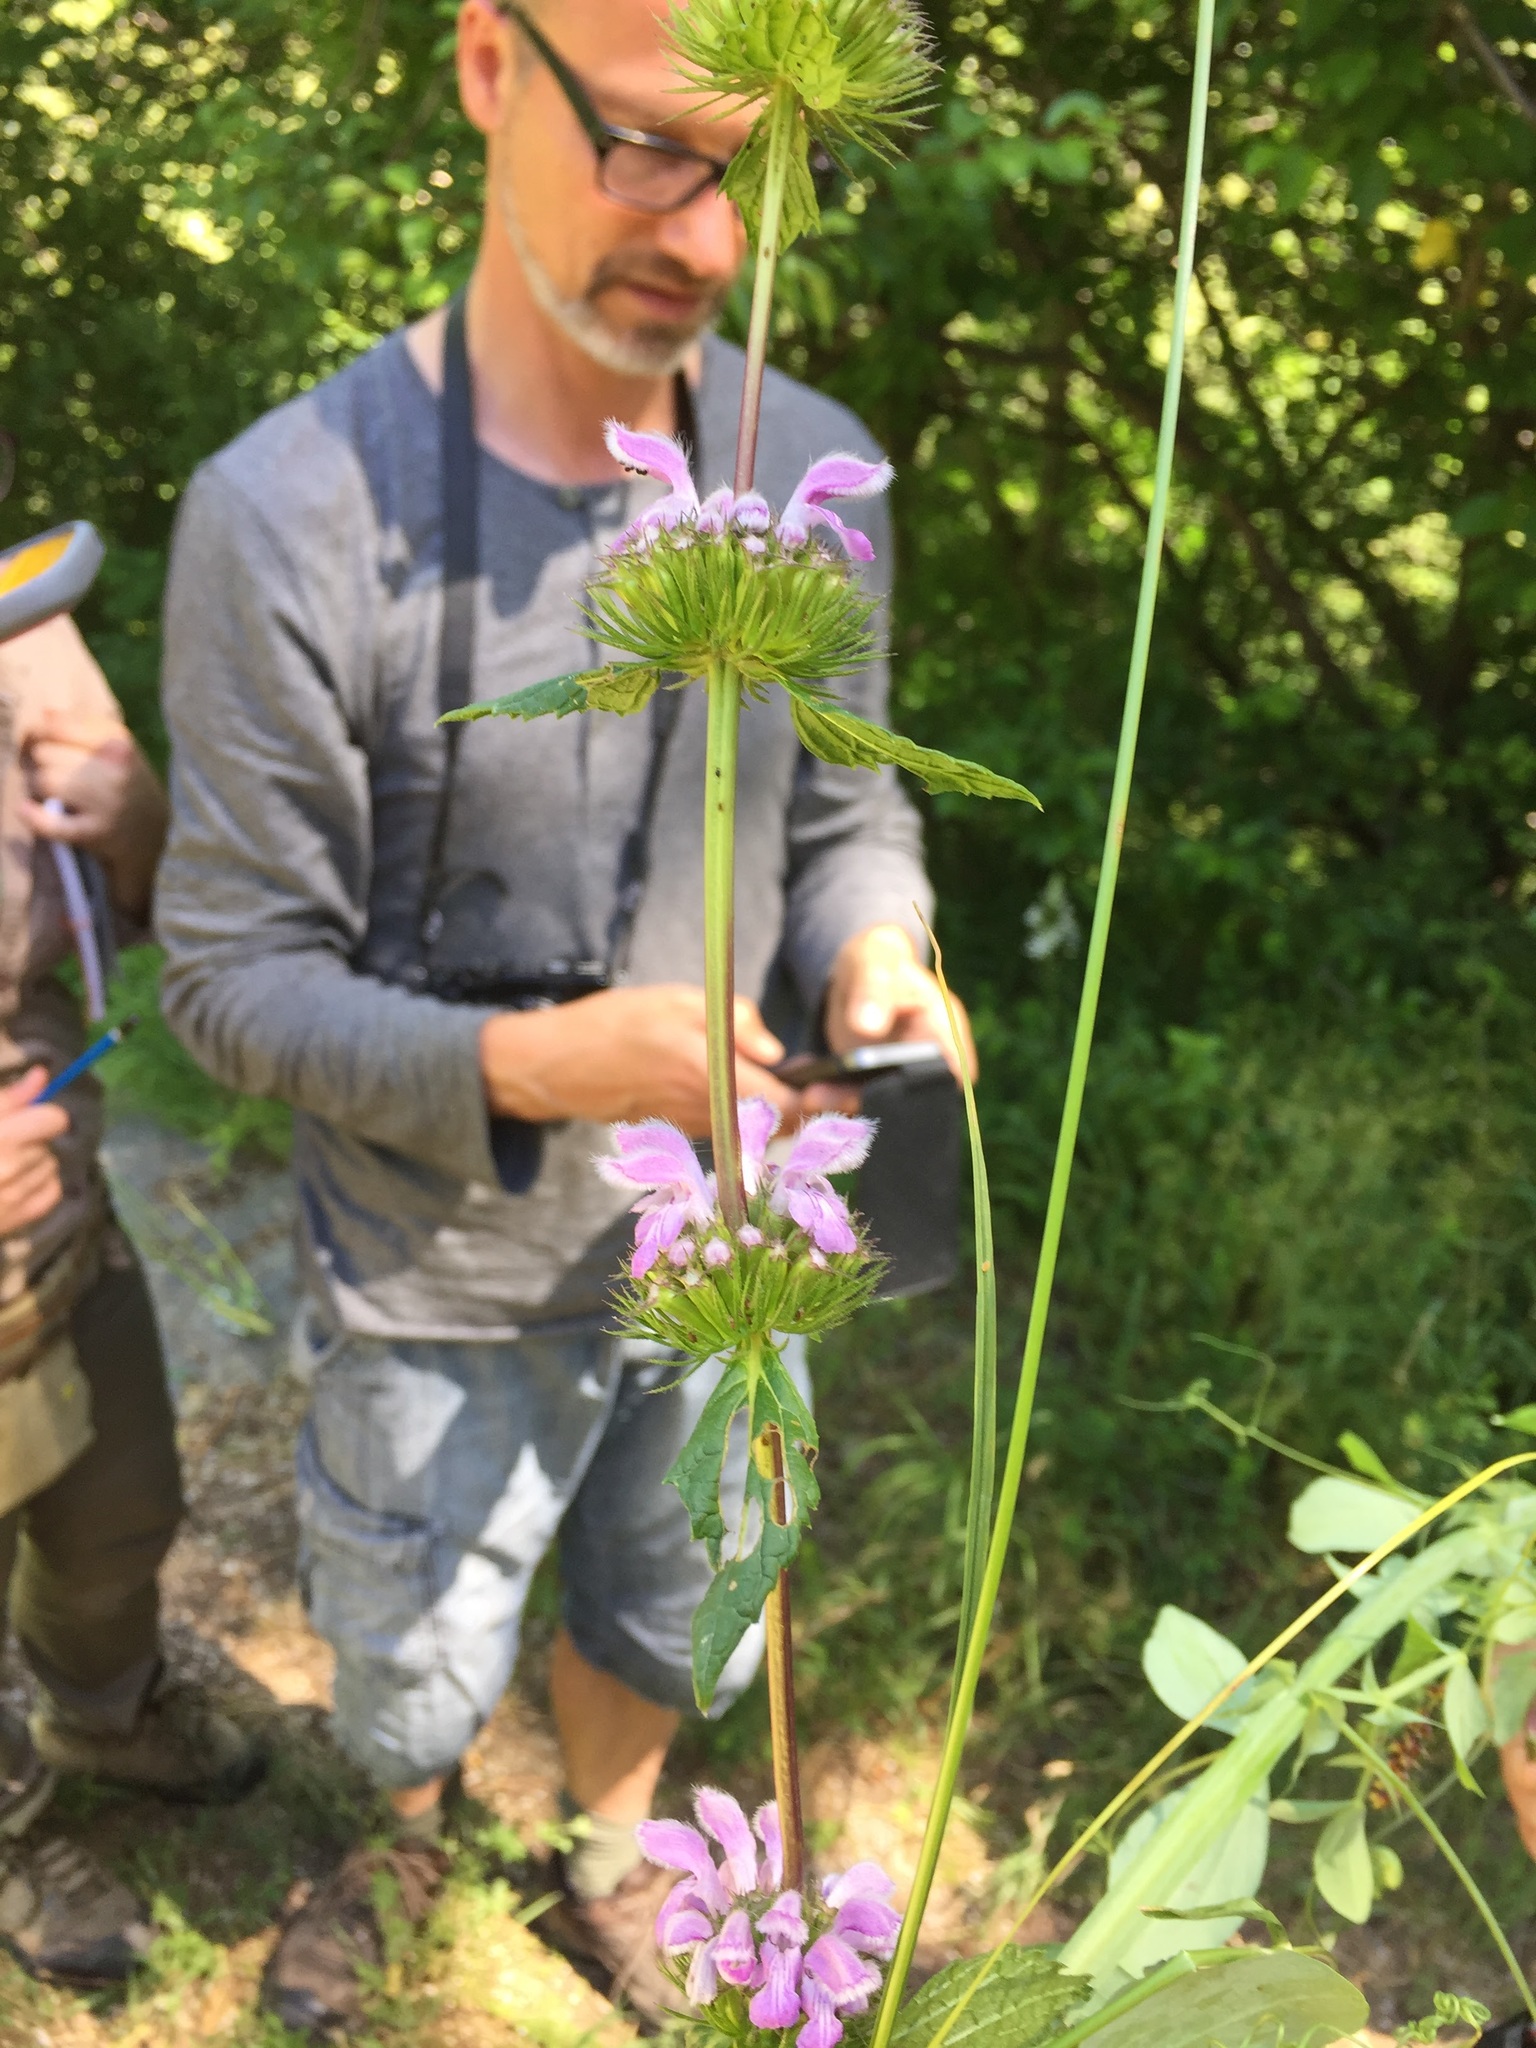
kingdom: Plantae
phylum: Tracheophyta
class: Magnoliopsida
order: Lamiales
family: Lamiaceae
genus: Phlomoides
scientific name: Phlomoides tuberosa
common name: Tuberous jerusalem sage
